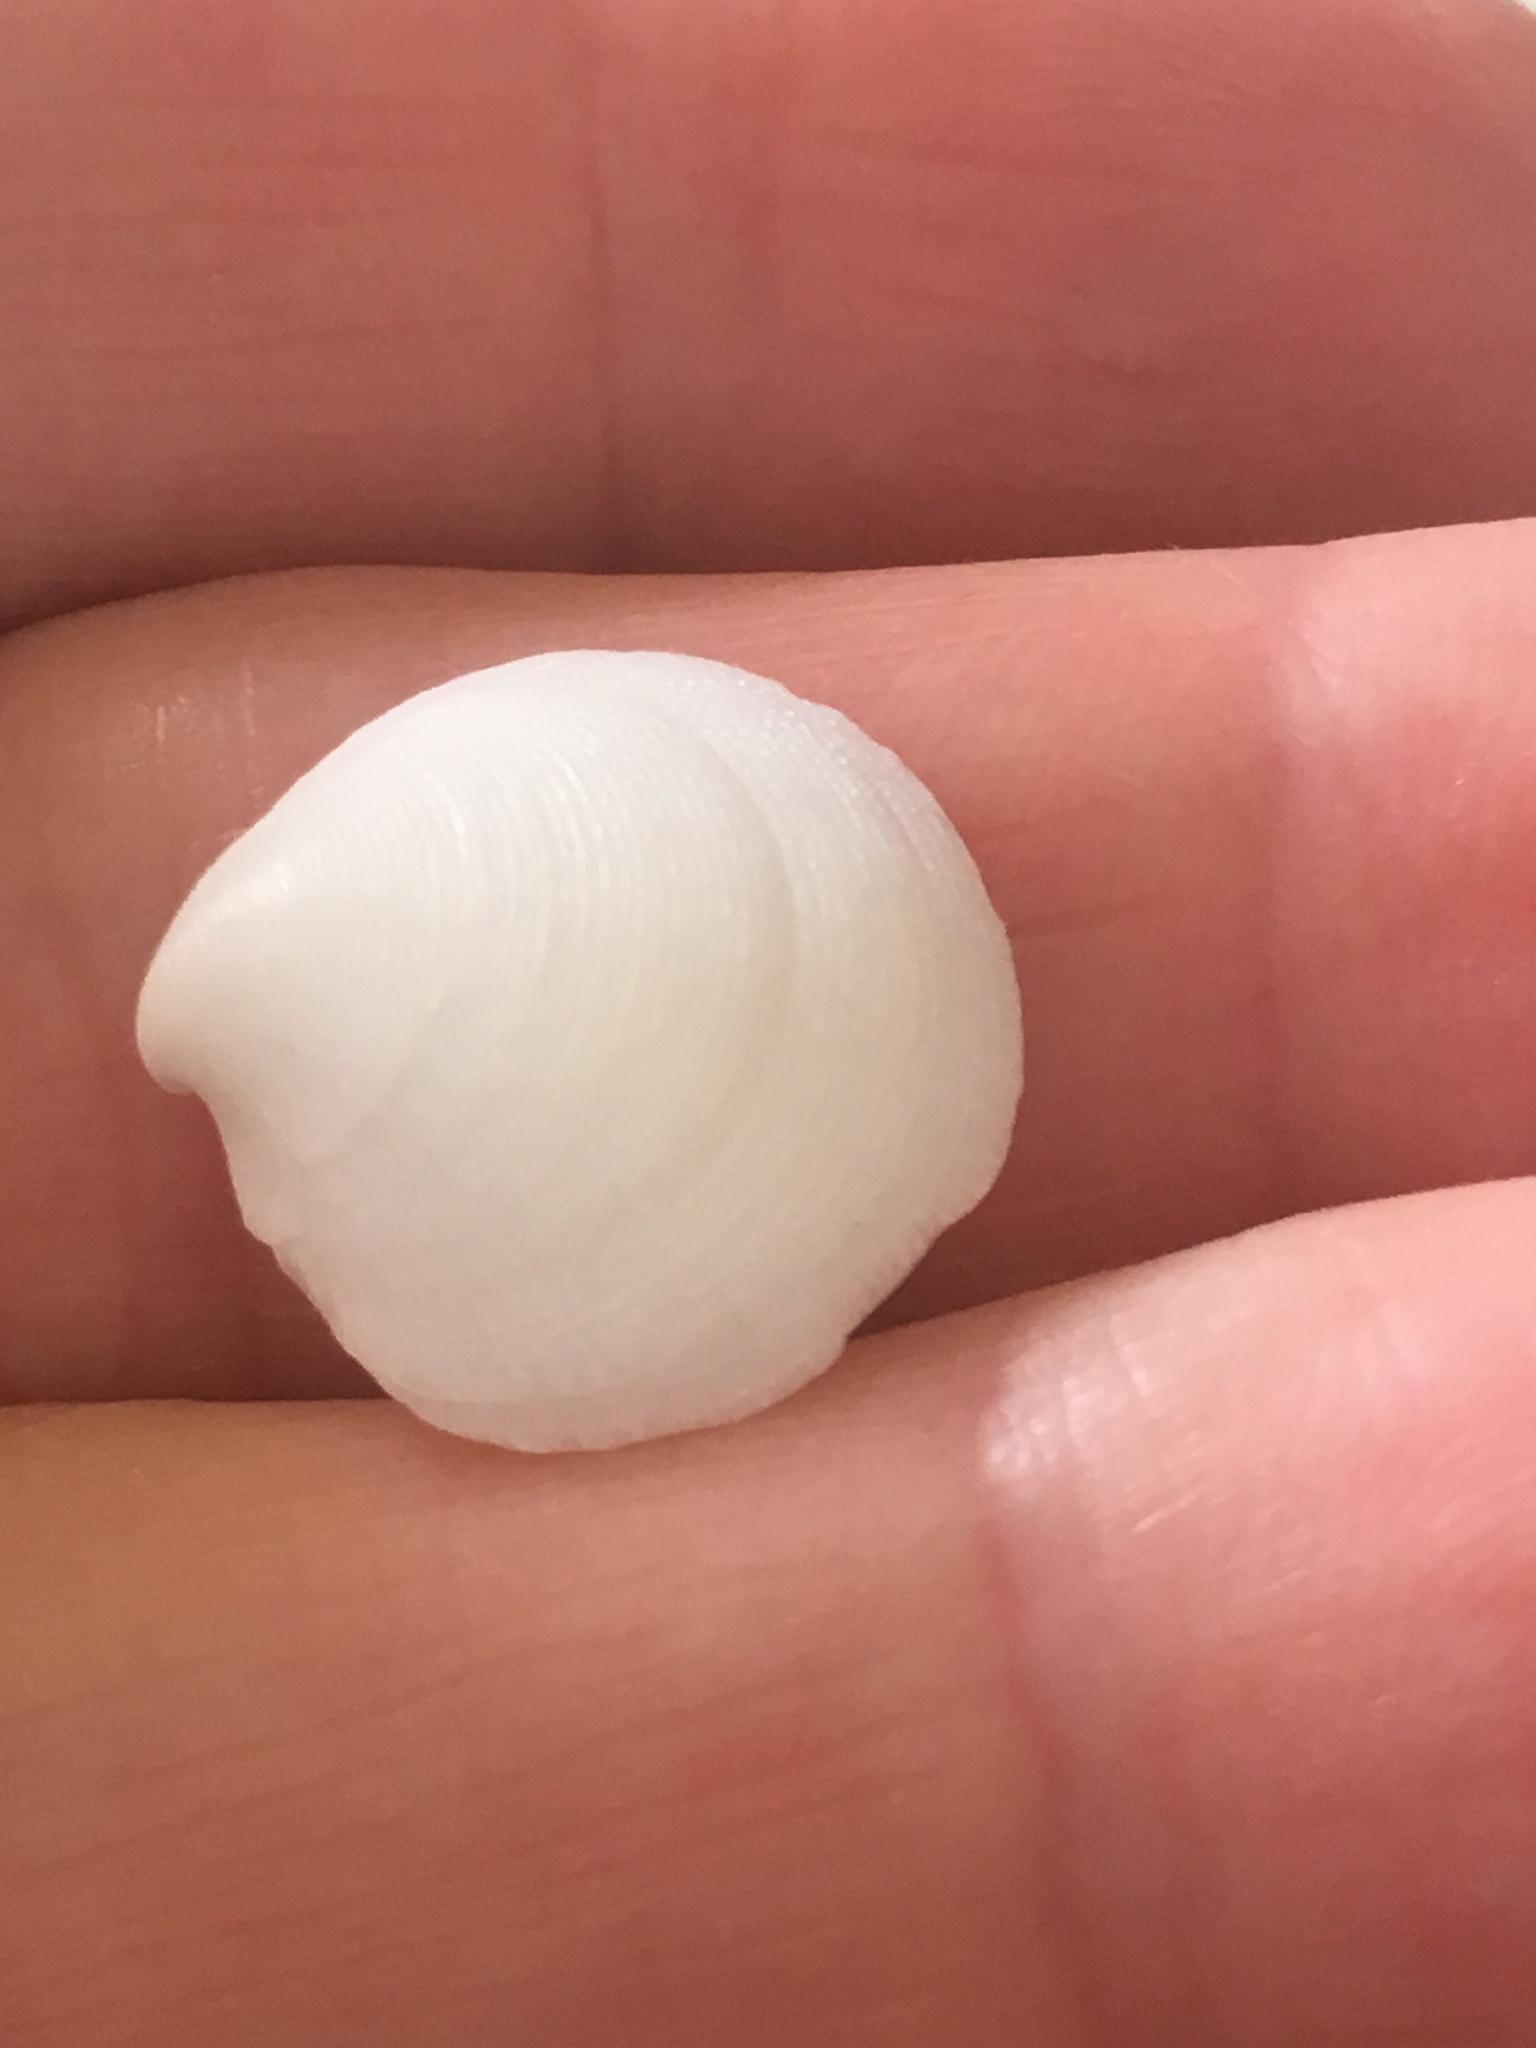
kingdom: Animalia
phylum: Mollusca
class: Bivalvia
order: Lucinida
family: Lucinidae
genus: Callucina
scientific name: Callucina keenae
